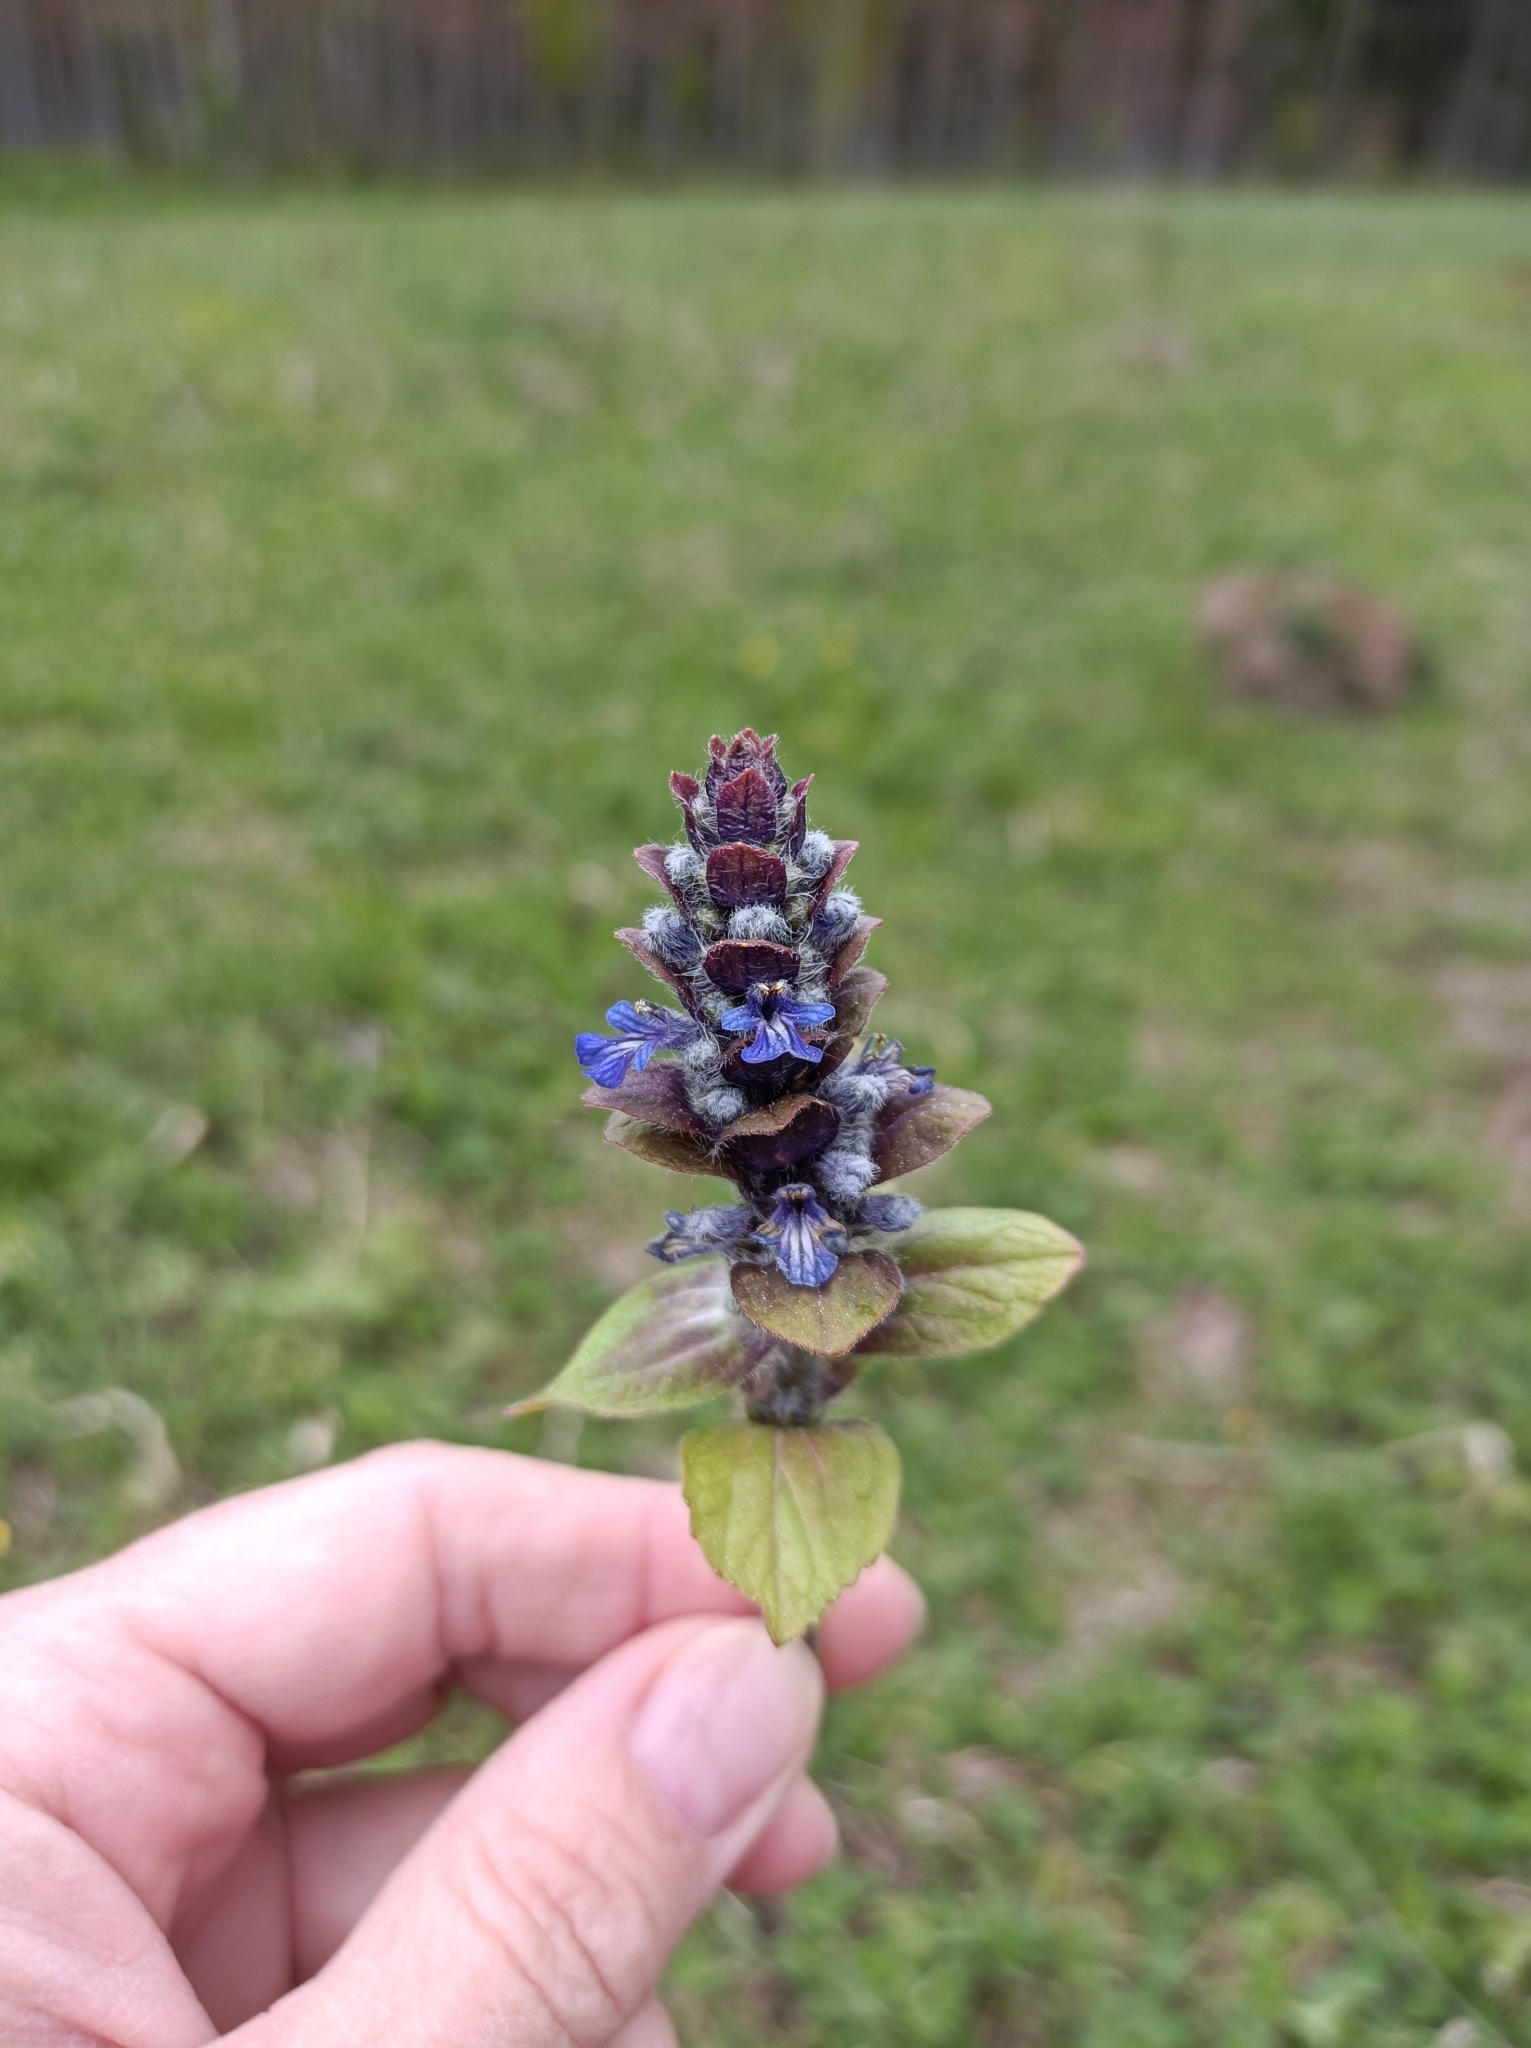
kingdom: Plantae
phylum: Tracheophyta
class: Magnoliopsida
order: Lamiales
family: Lamiaceae
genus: Ajuga
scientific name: Ajuga reptans
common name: Bugle
